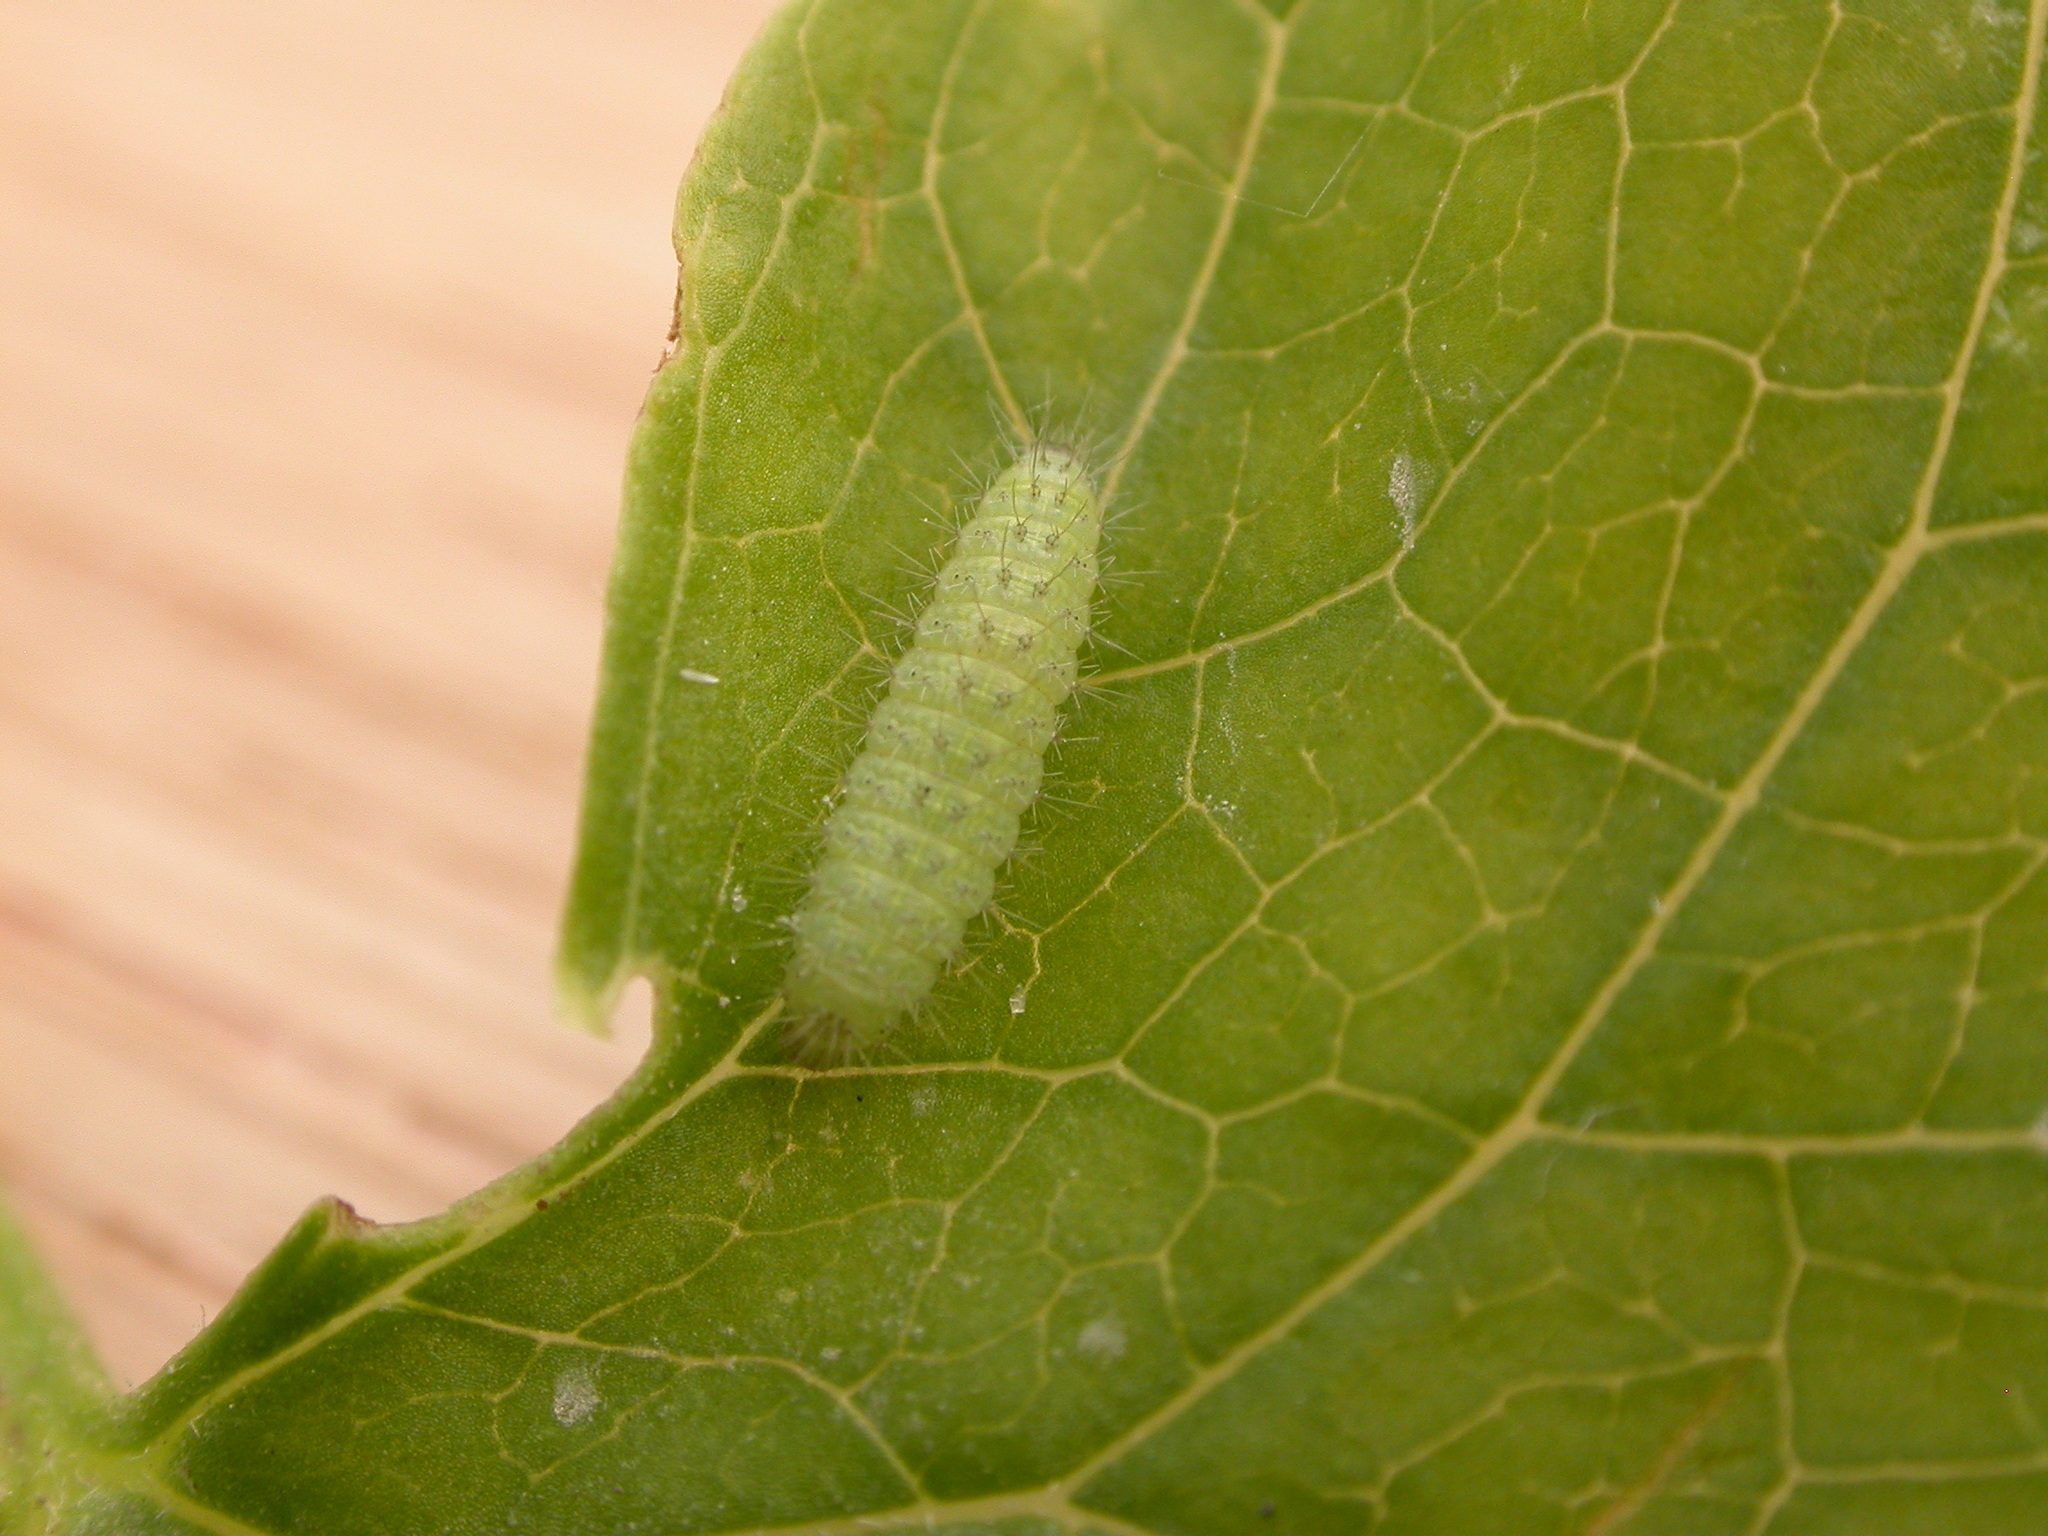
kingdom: Animalia
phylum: Arthropoda
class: Insecta
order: Lepidoptera
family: Pterophoridae
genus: Emmelina
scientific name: Emmelina monodactyla
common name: Common plume
